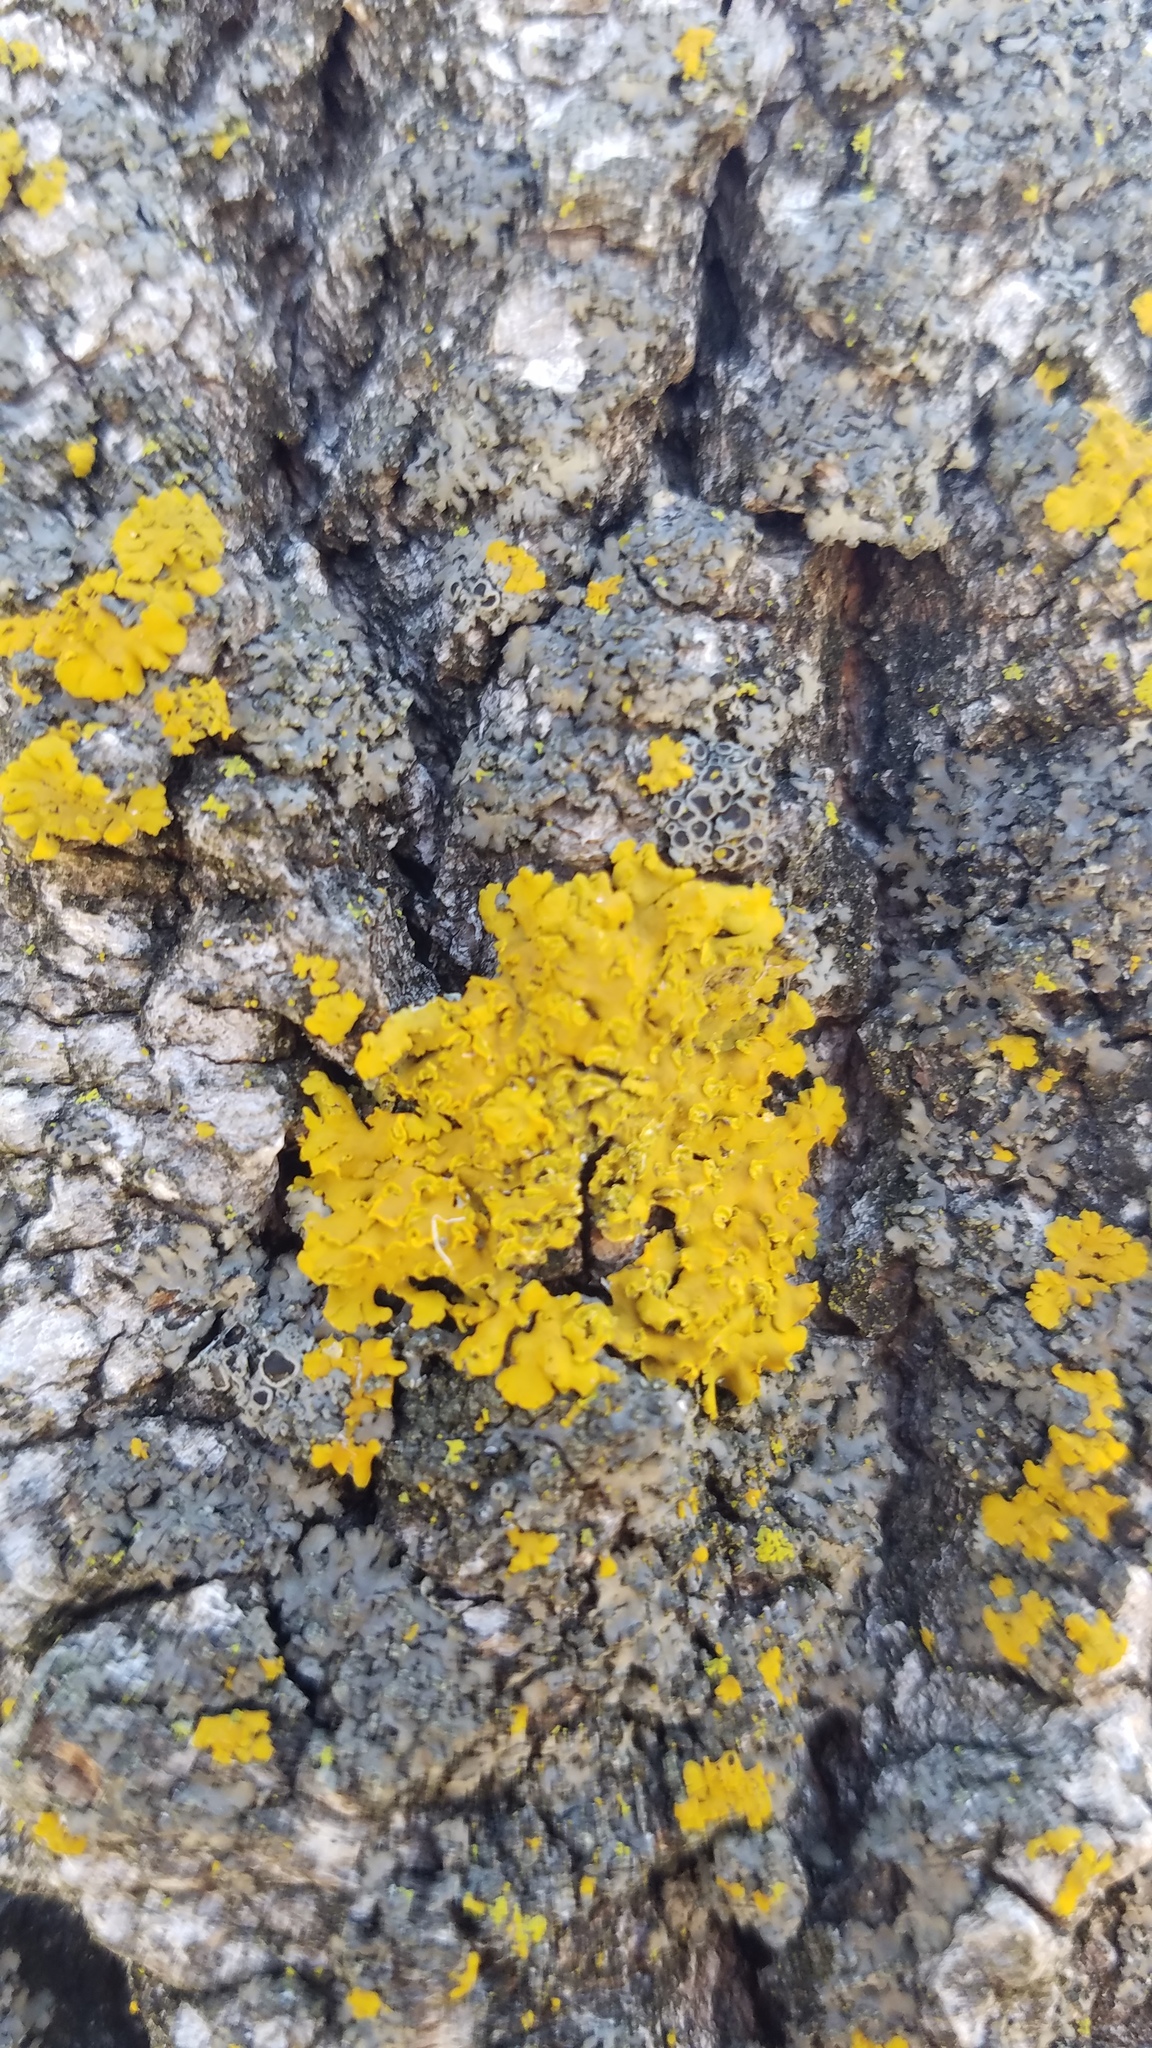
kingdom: Fungi
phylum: Ascomycota
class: Lecanoromycetes
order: Teloschistales
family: Teloschistaceae
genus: Oxneria
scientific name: Oxneria fallax
